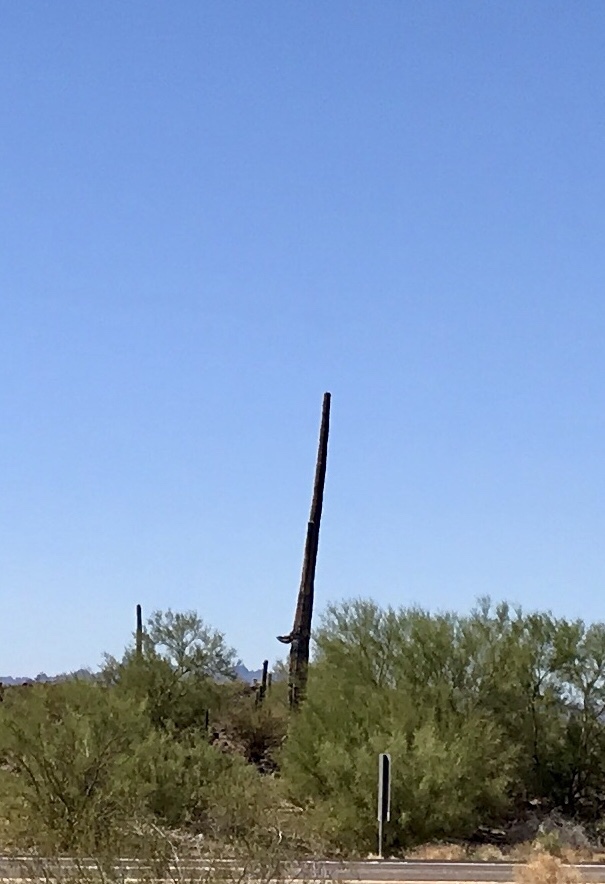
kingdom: Plantae
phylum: Tracheophyta
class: Magnoliopsida
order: Caryophyllales
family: Cactaceae
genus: Carnegiea
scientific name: Carnegiea gigantea
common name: Saguaro
